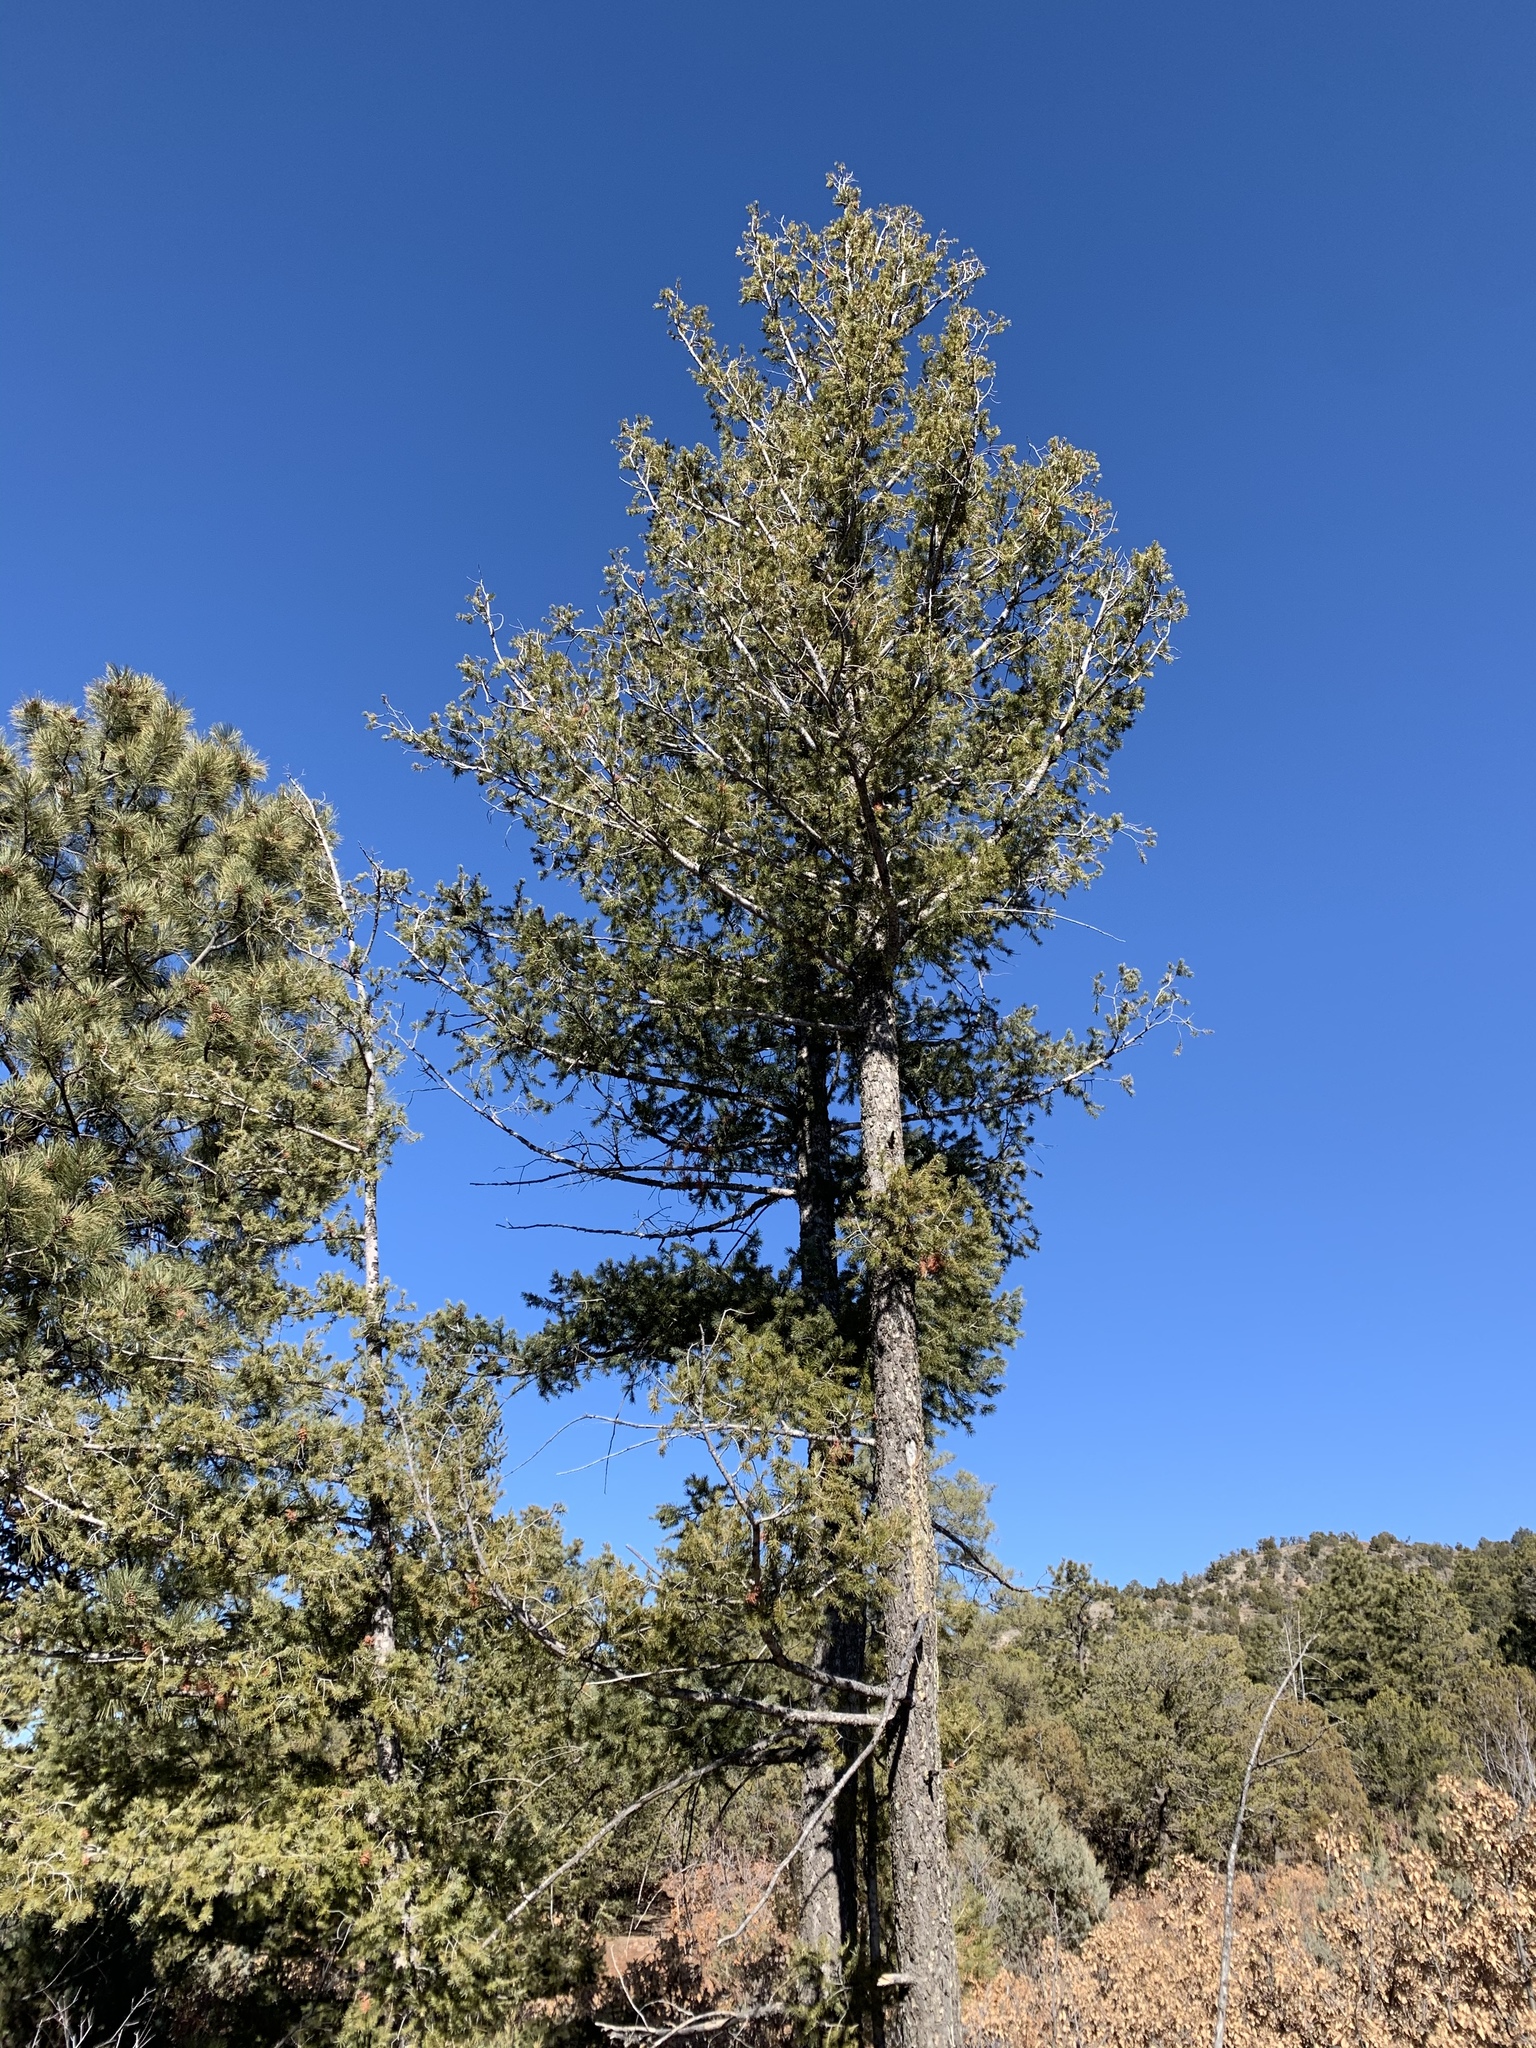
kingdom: Plantae
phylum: Tracheophyta
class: Pinopsida
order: Pinales
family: Pinaceae
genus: Pseudotsuga
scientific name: Pseudotsuga menziesii
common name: Douglas fir
